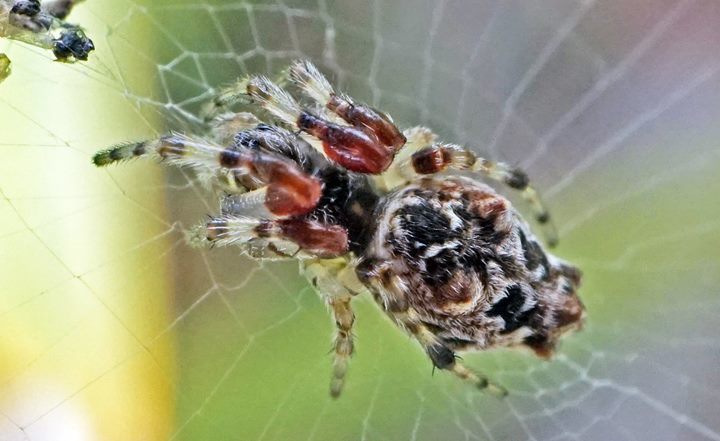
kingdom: Animalia
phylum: Arthropoda
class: Arachnida
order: Araneae
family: Araneidae
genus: Cyclosa
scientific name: Cyclosa walckenaeri
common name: Orb weavers
